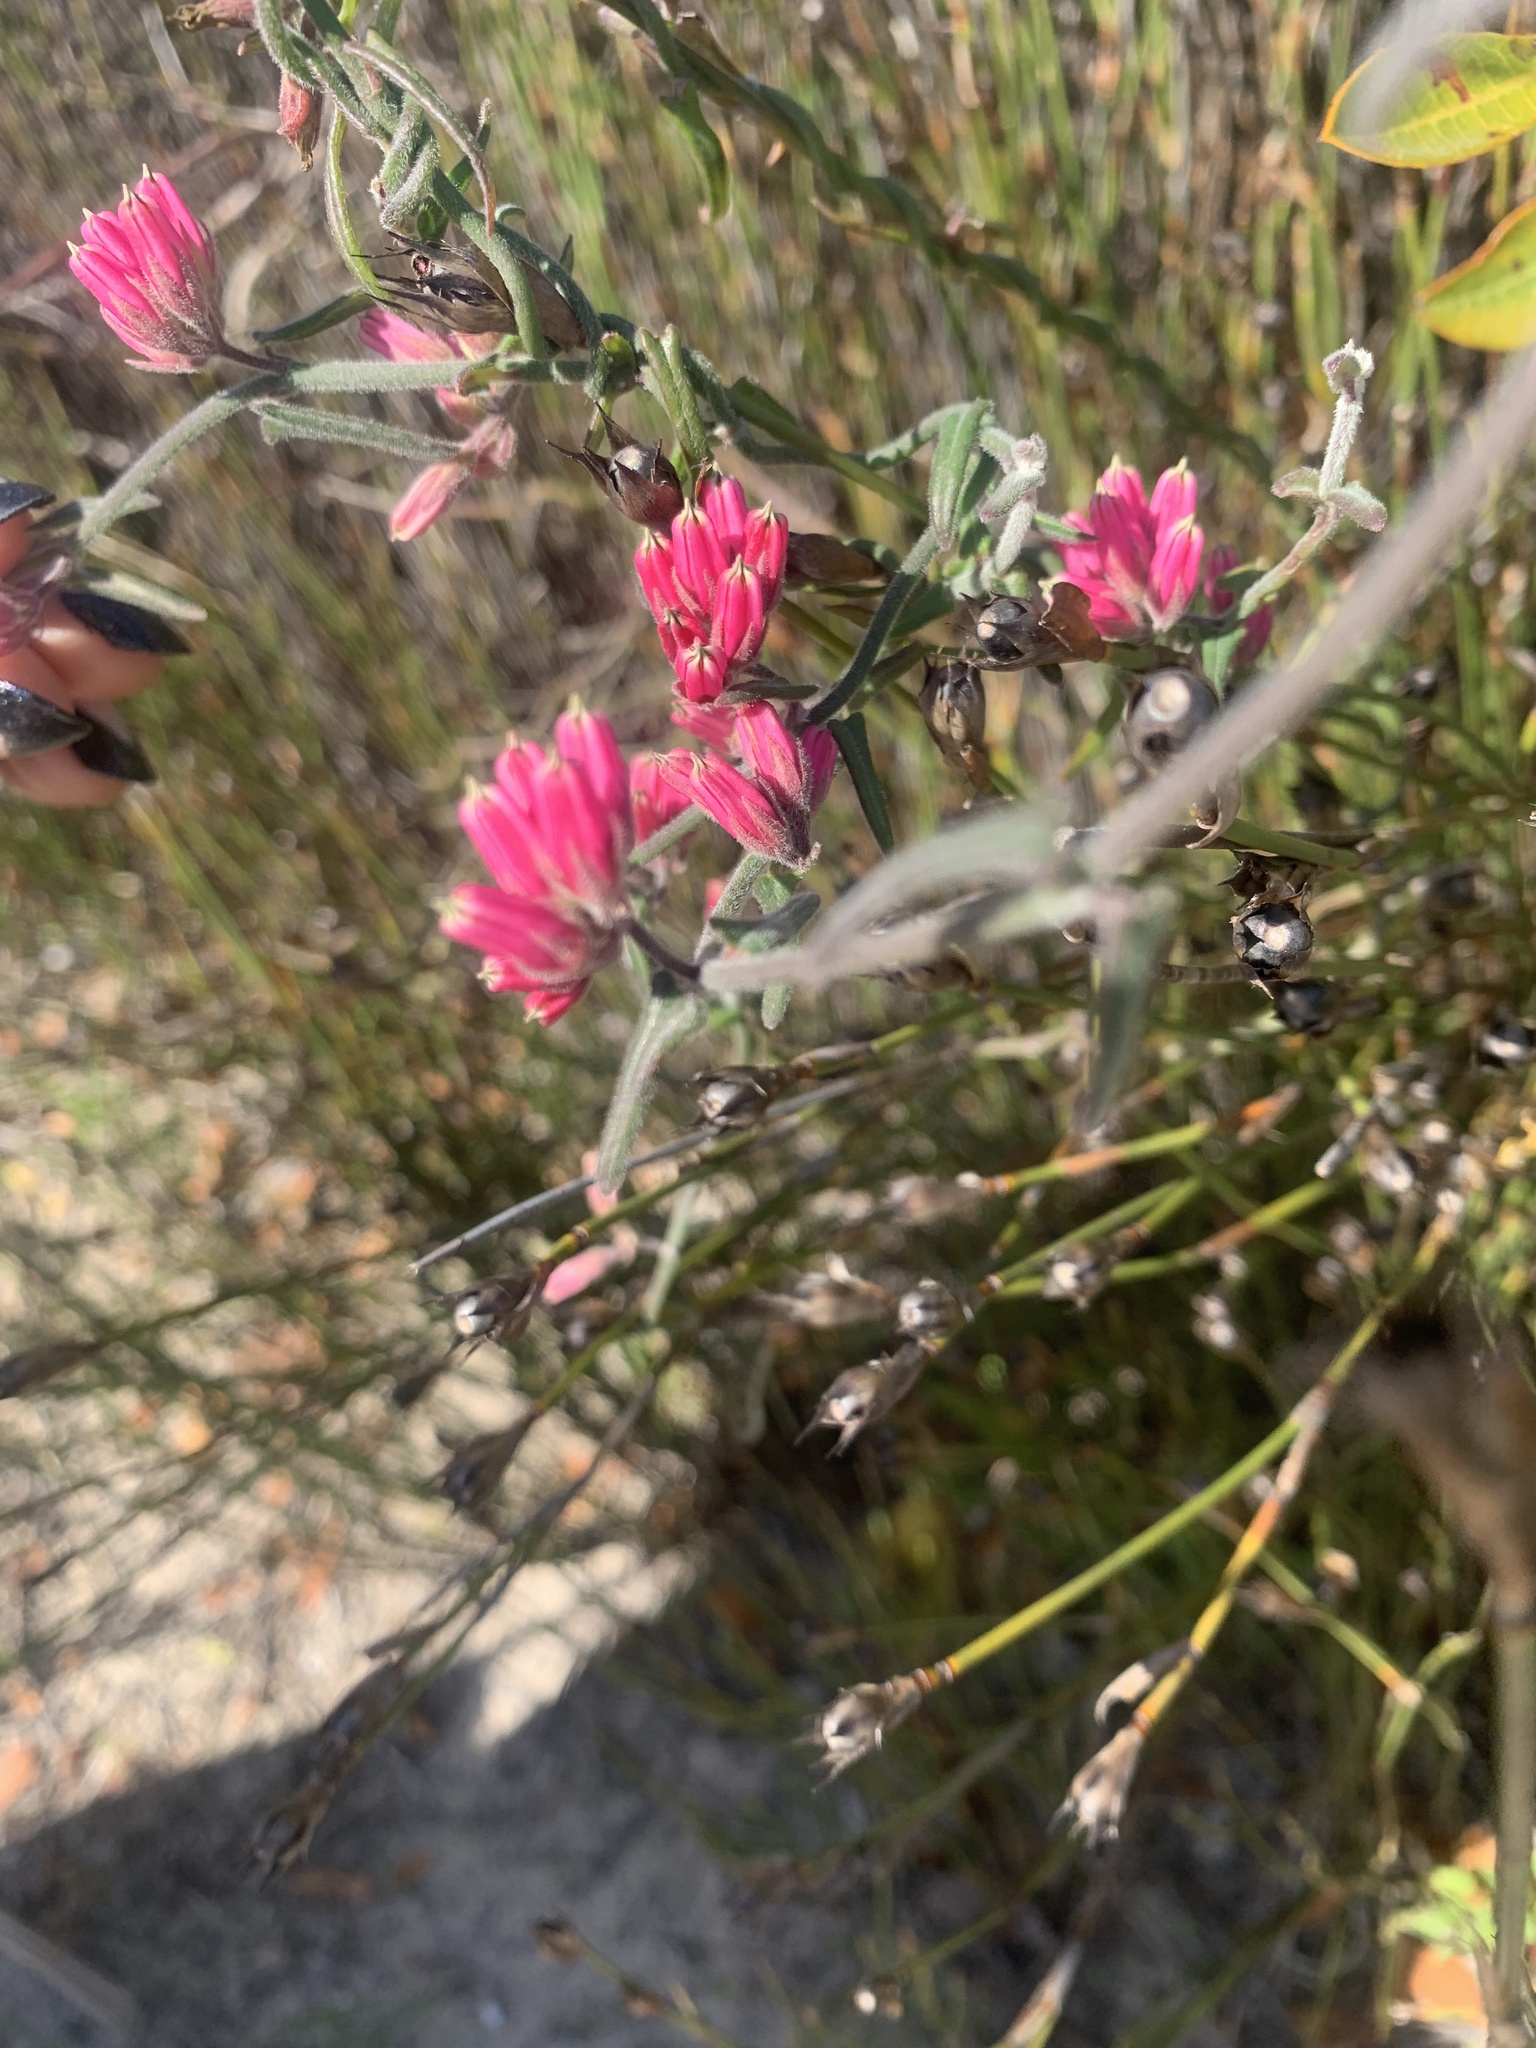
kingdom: Plantae
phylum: Tracheophyta
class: Magnoliopsida
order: Gentianales
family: Apocynaceae
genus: Microloma
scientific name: Microloma sagittatum
